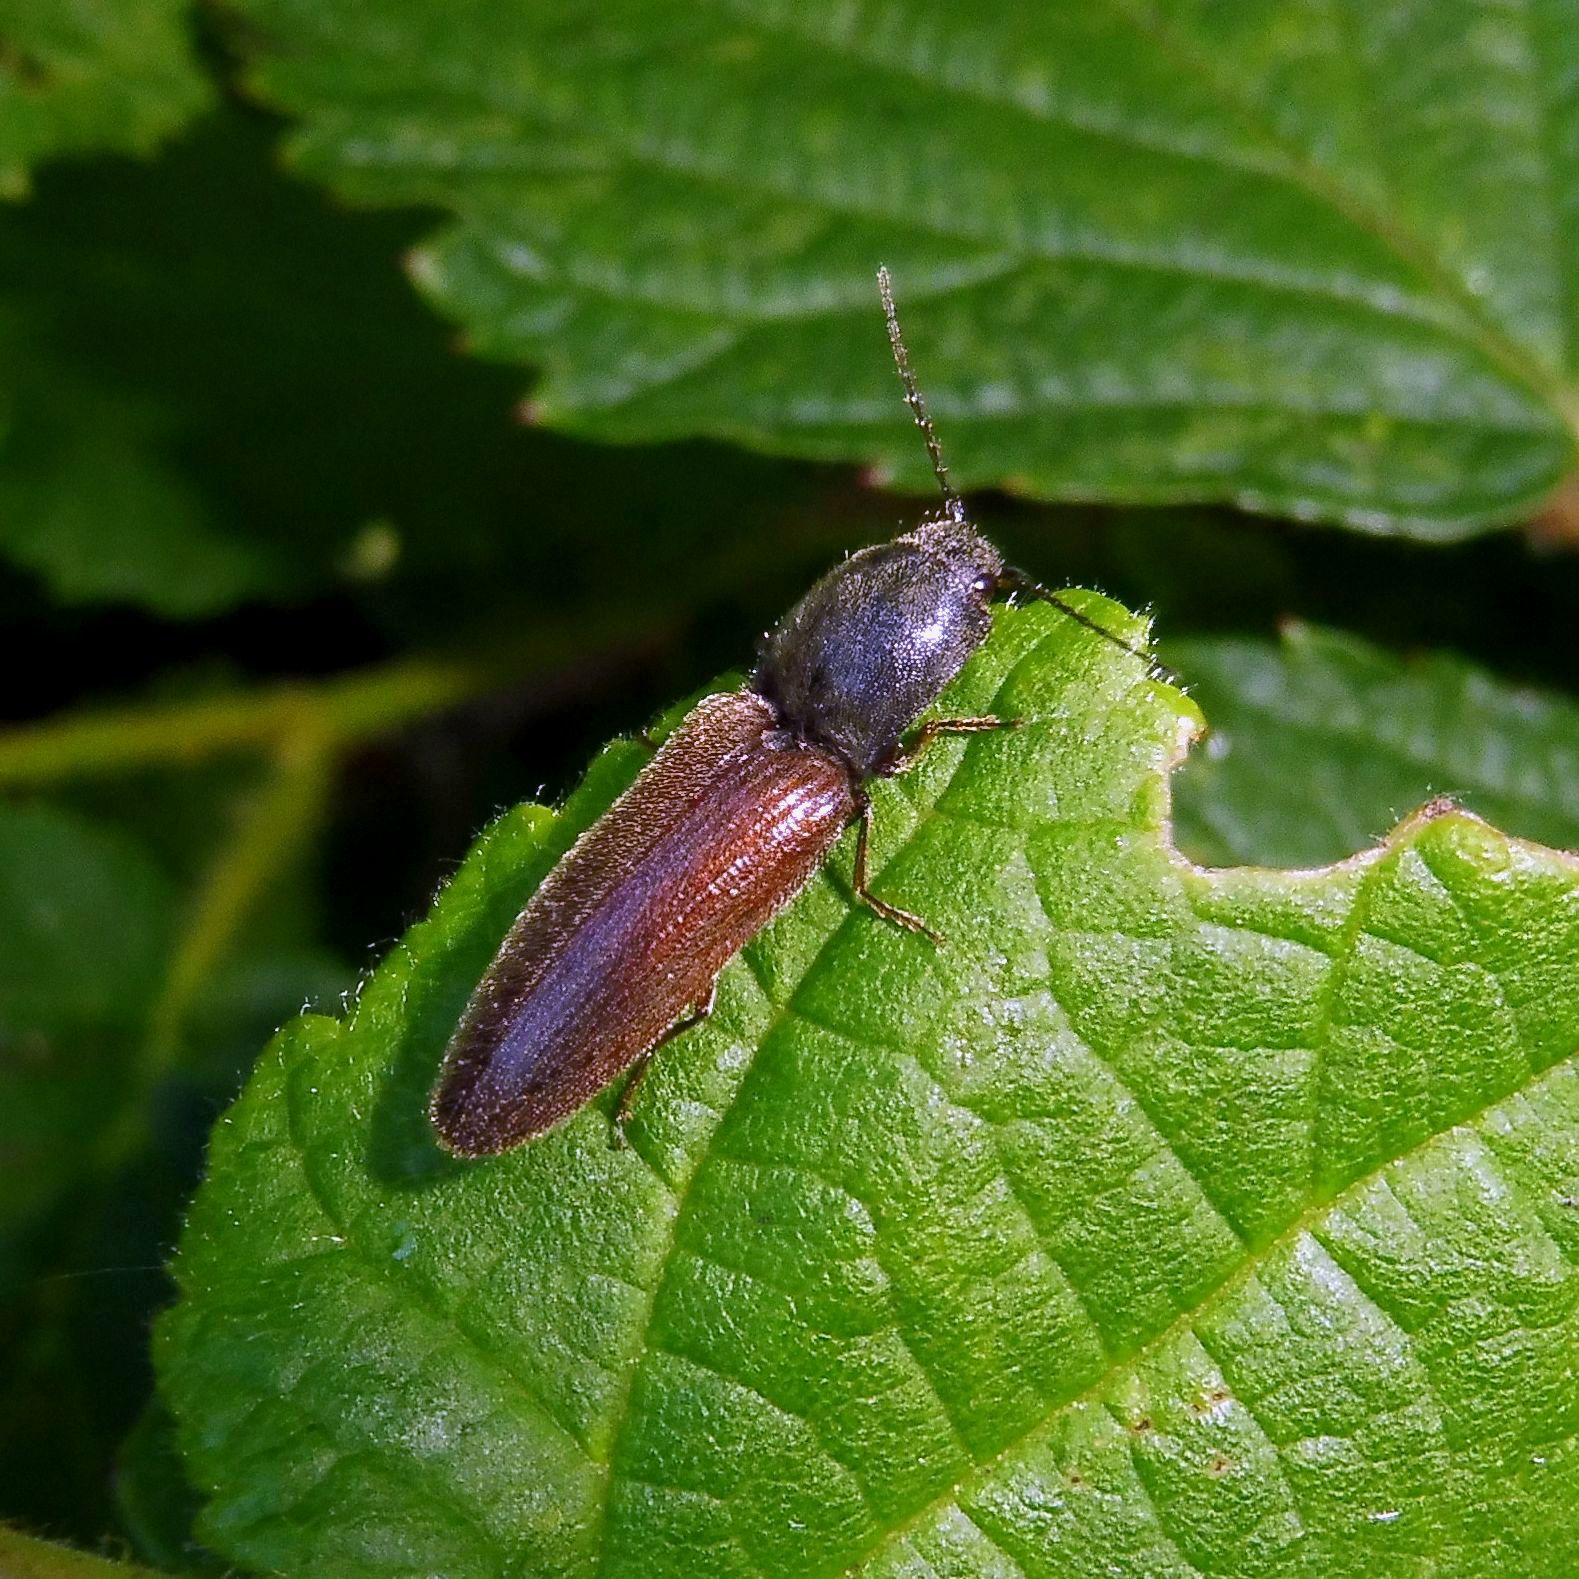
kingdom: Animalia
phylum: Arthropoda
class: Insecta
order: Coleoptera
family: Elateridae
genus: Athous
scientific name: Athous haemorrhoidalis
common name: Red-brown click beetle
